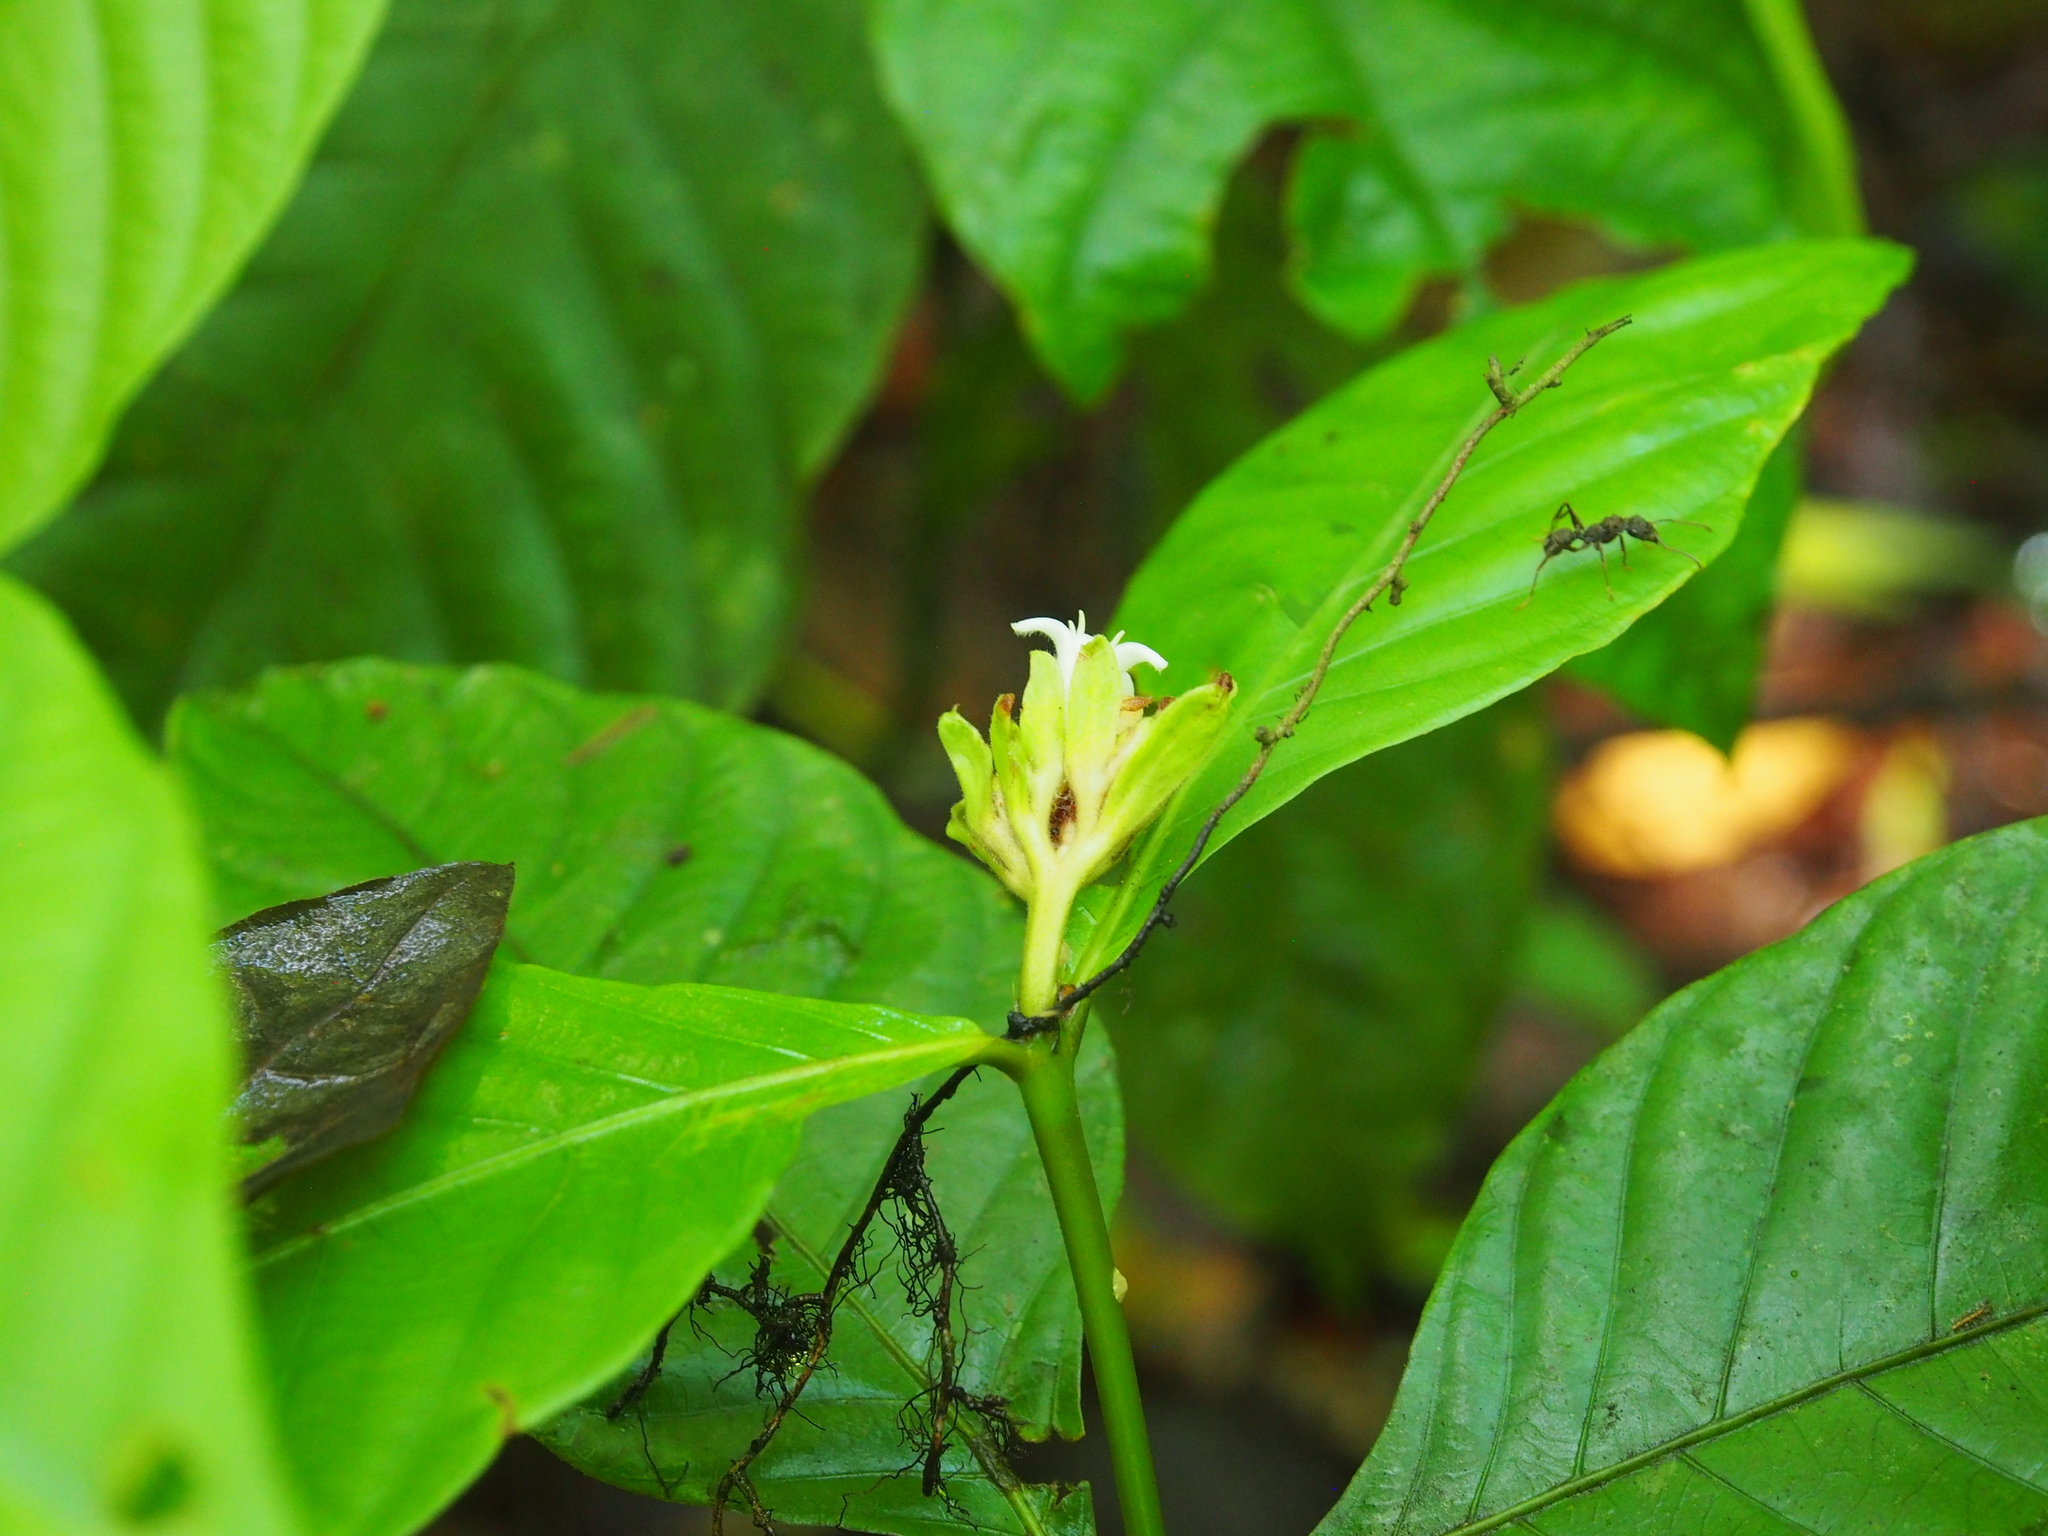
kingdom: Plantae
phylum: Tracheophyta
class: Magnoliopsida
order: Gentianales
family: Rubiaceae
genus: Palicourea
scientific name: Palicourea suerrensis
